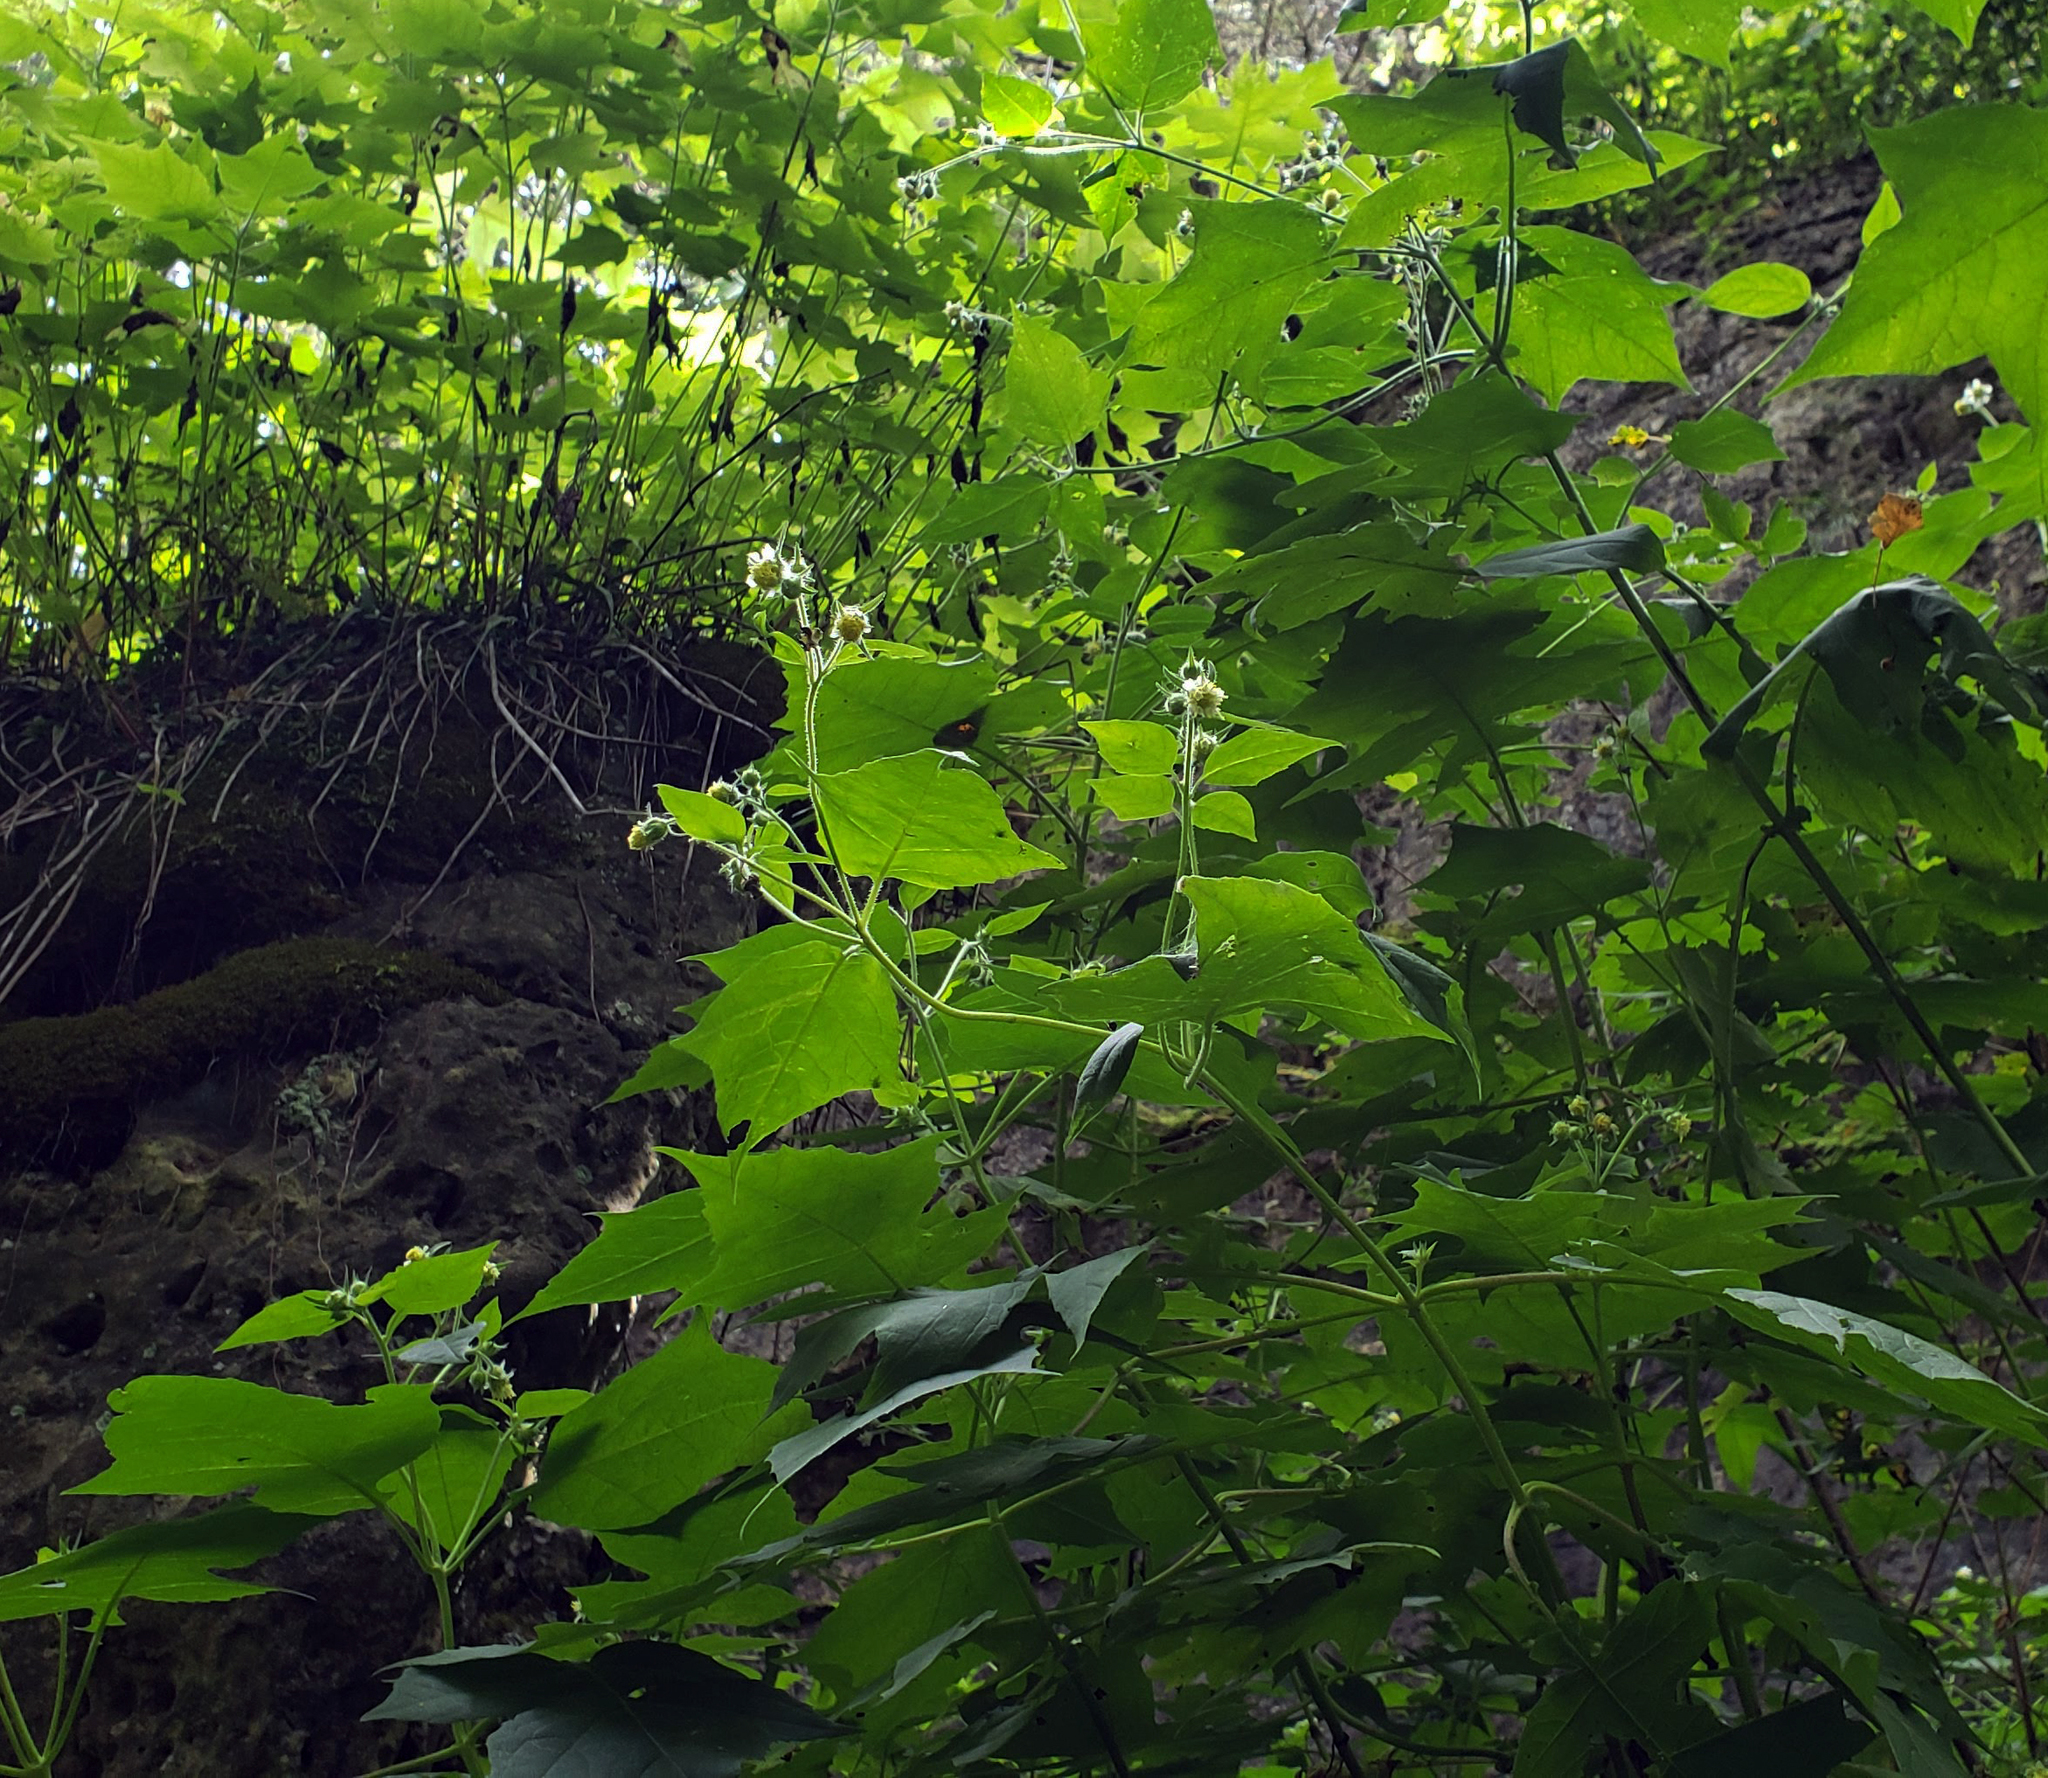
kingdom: Plantae
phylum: Tracheophyta
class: Magnoliopsida
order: Asterales
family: Asteraceae
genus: Polymnia
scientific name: Polymnia canadensis
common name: Pale-flowered leafcup
